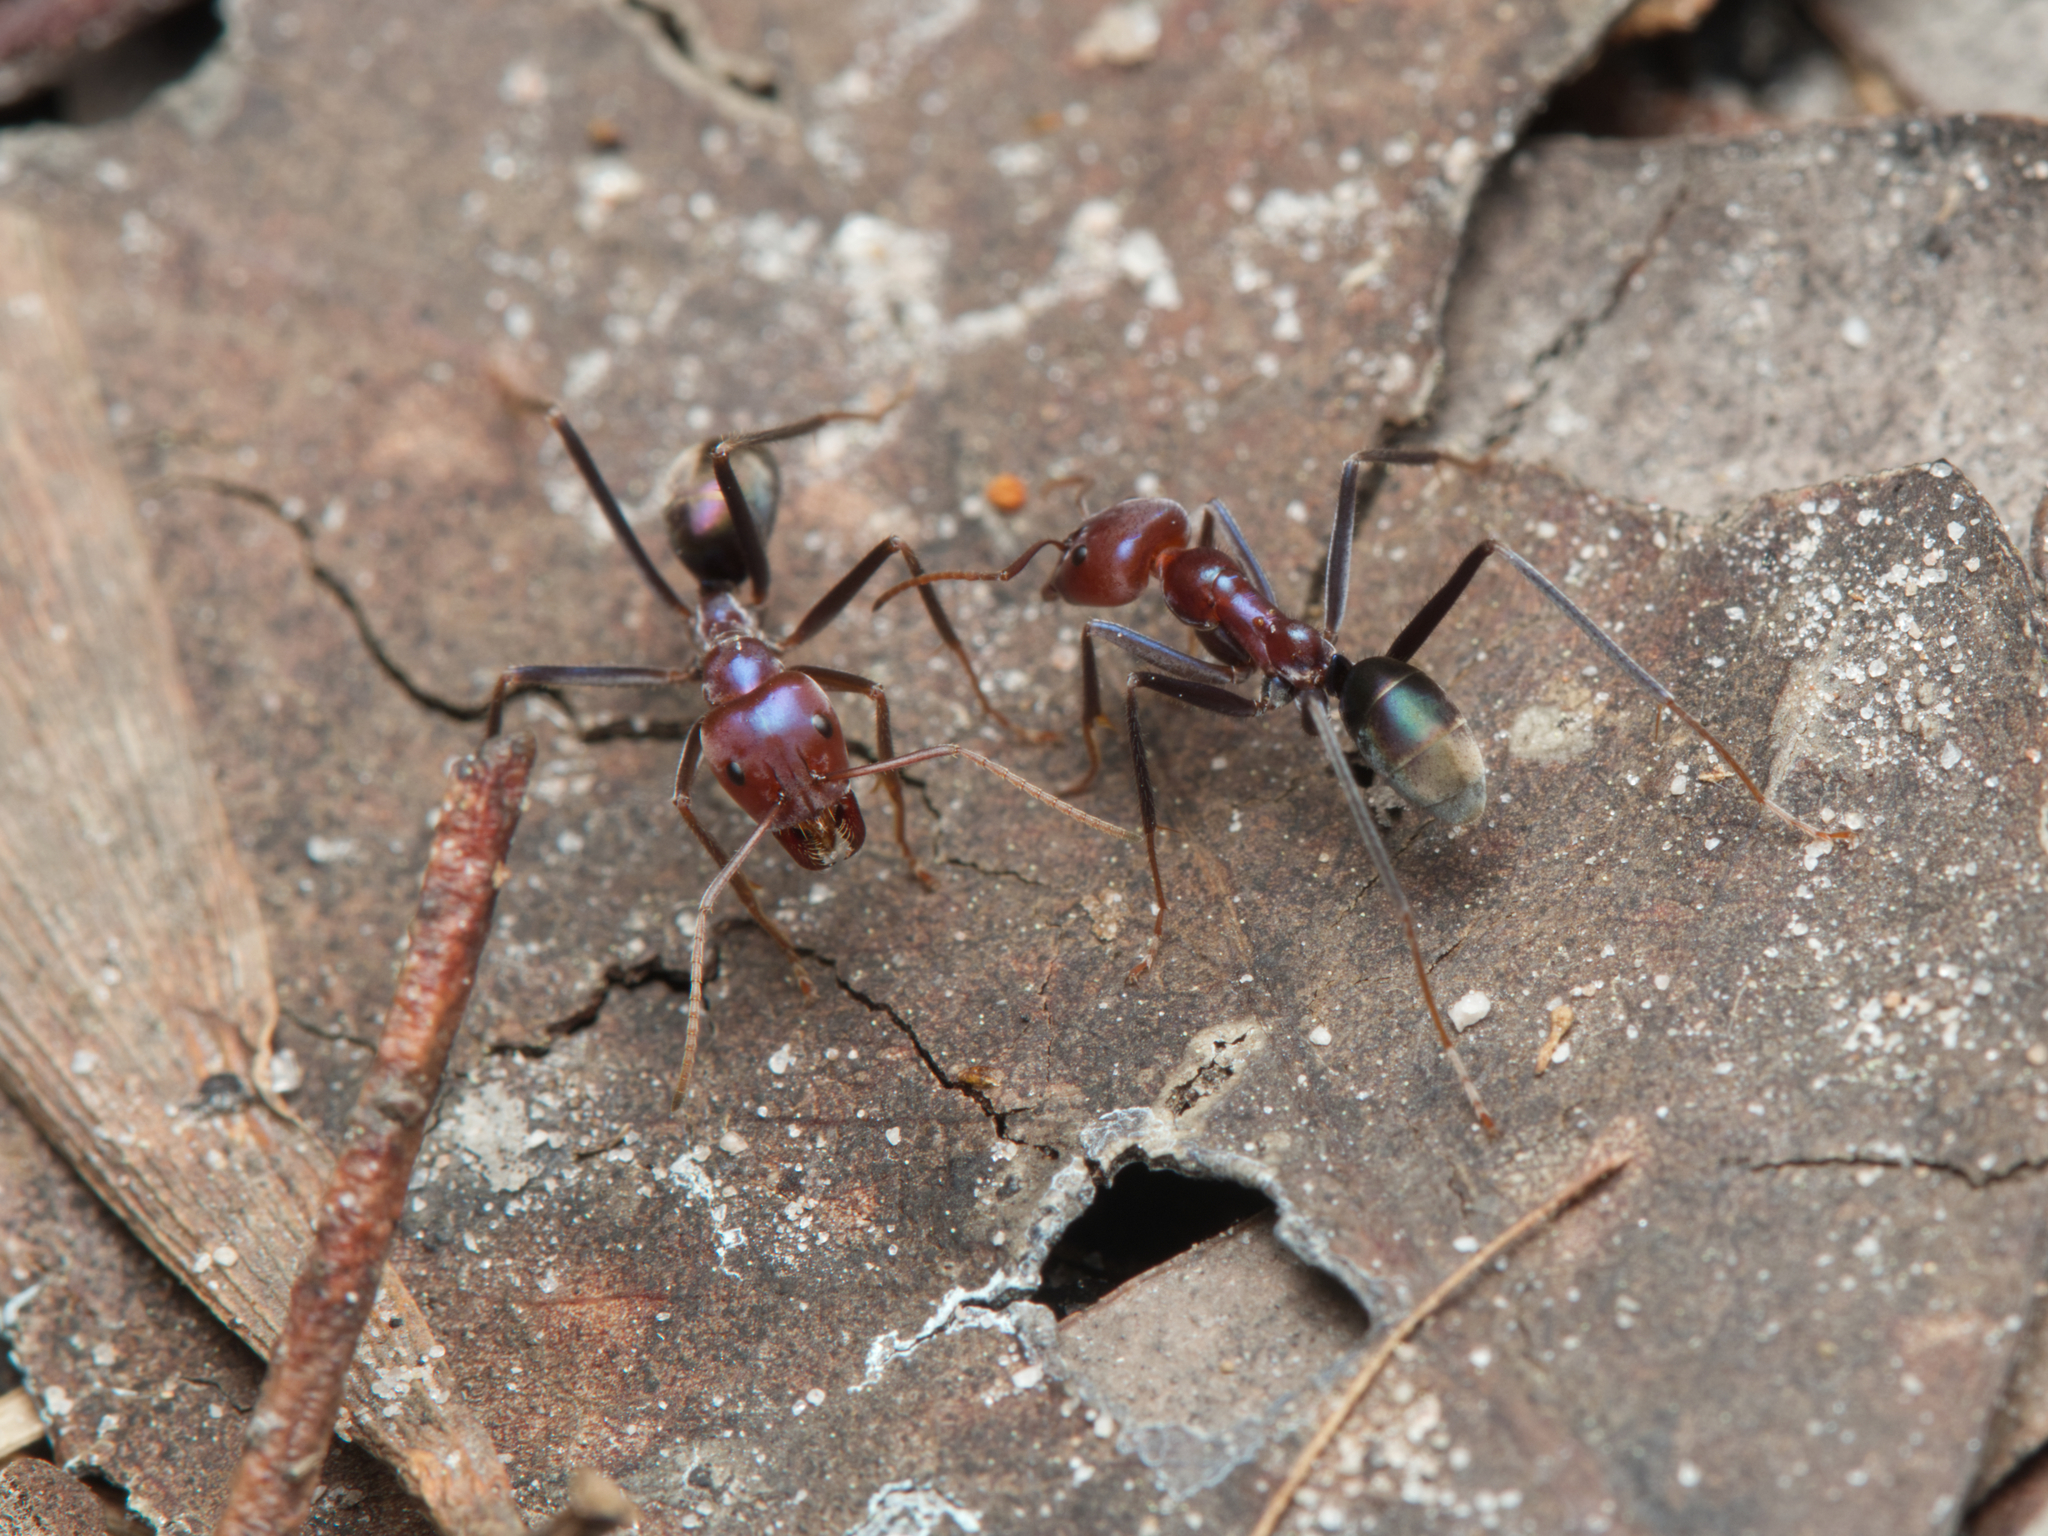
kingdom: Animalia
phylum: Arthropoda
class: Insecta
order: Hymenoptera
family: Formicidae
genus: Iridomyrmex
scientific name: Iridomyrmex purpureus
